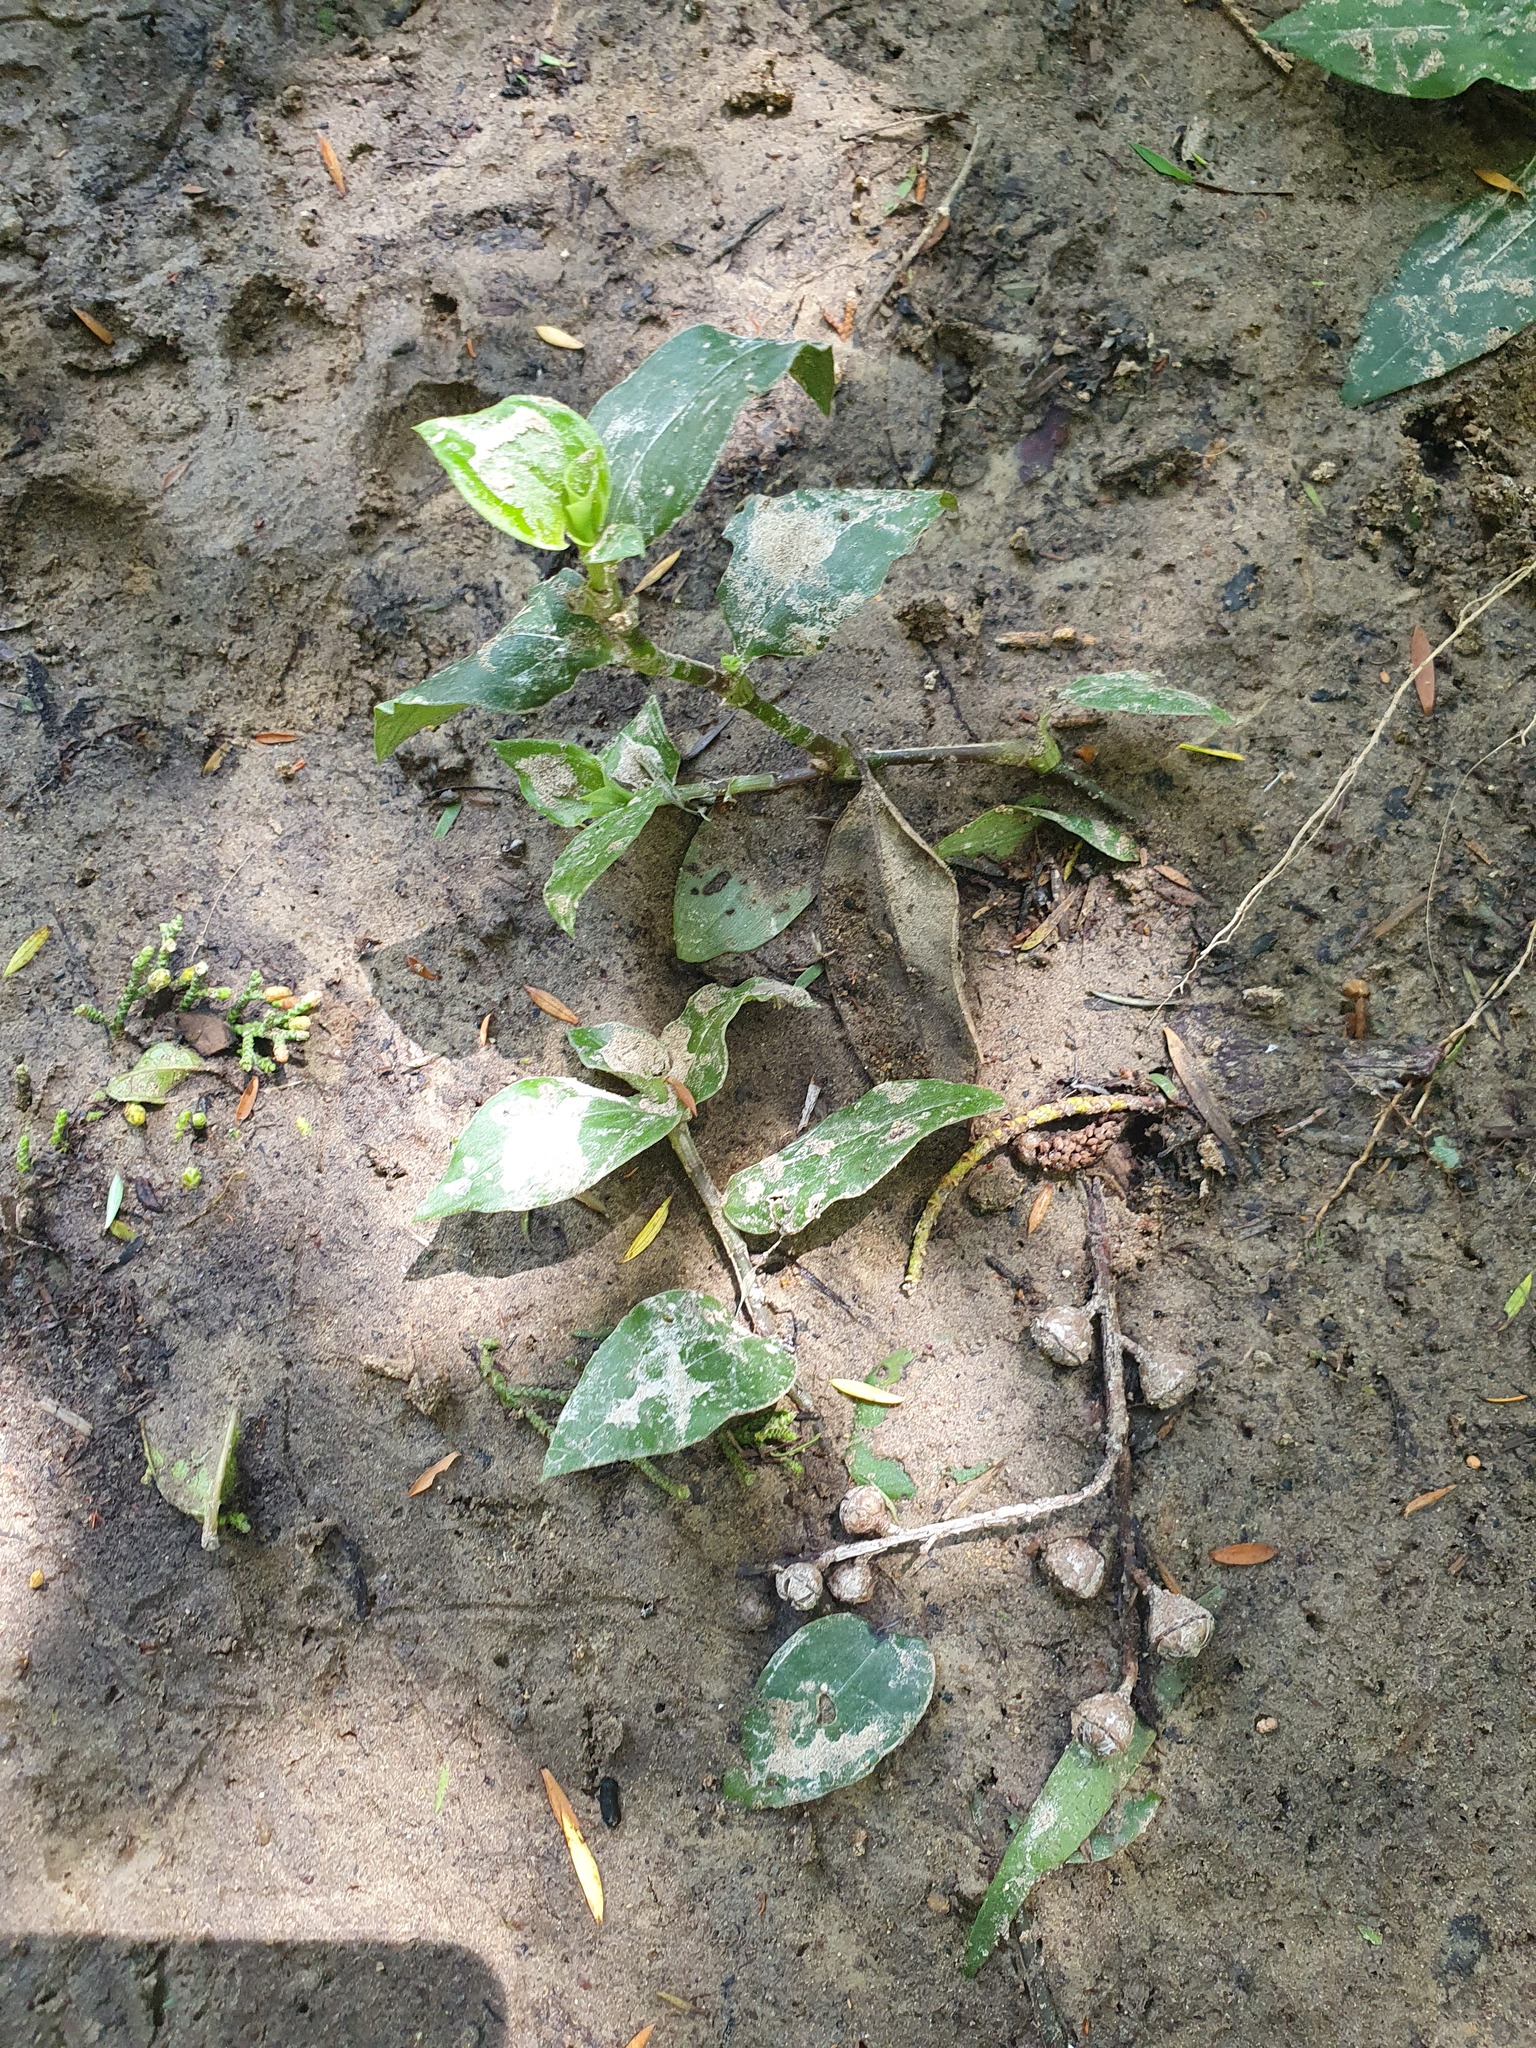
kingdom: Plantae
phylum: Tracheophyta
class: Liliopsida
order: Commelinales
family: Commelinaceae
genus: Tradescantia
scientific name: Tradescantia fluminensis
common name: Wandering-jew
